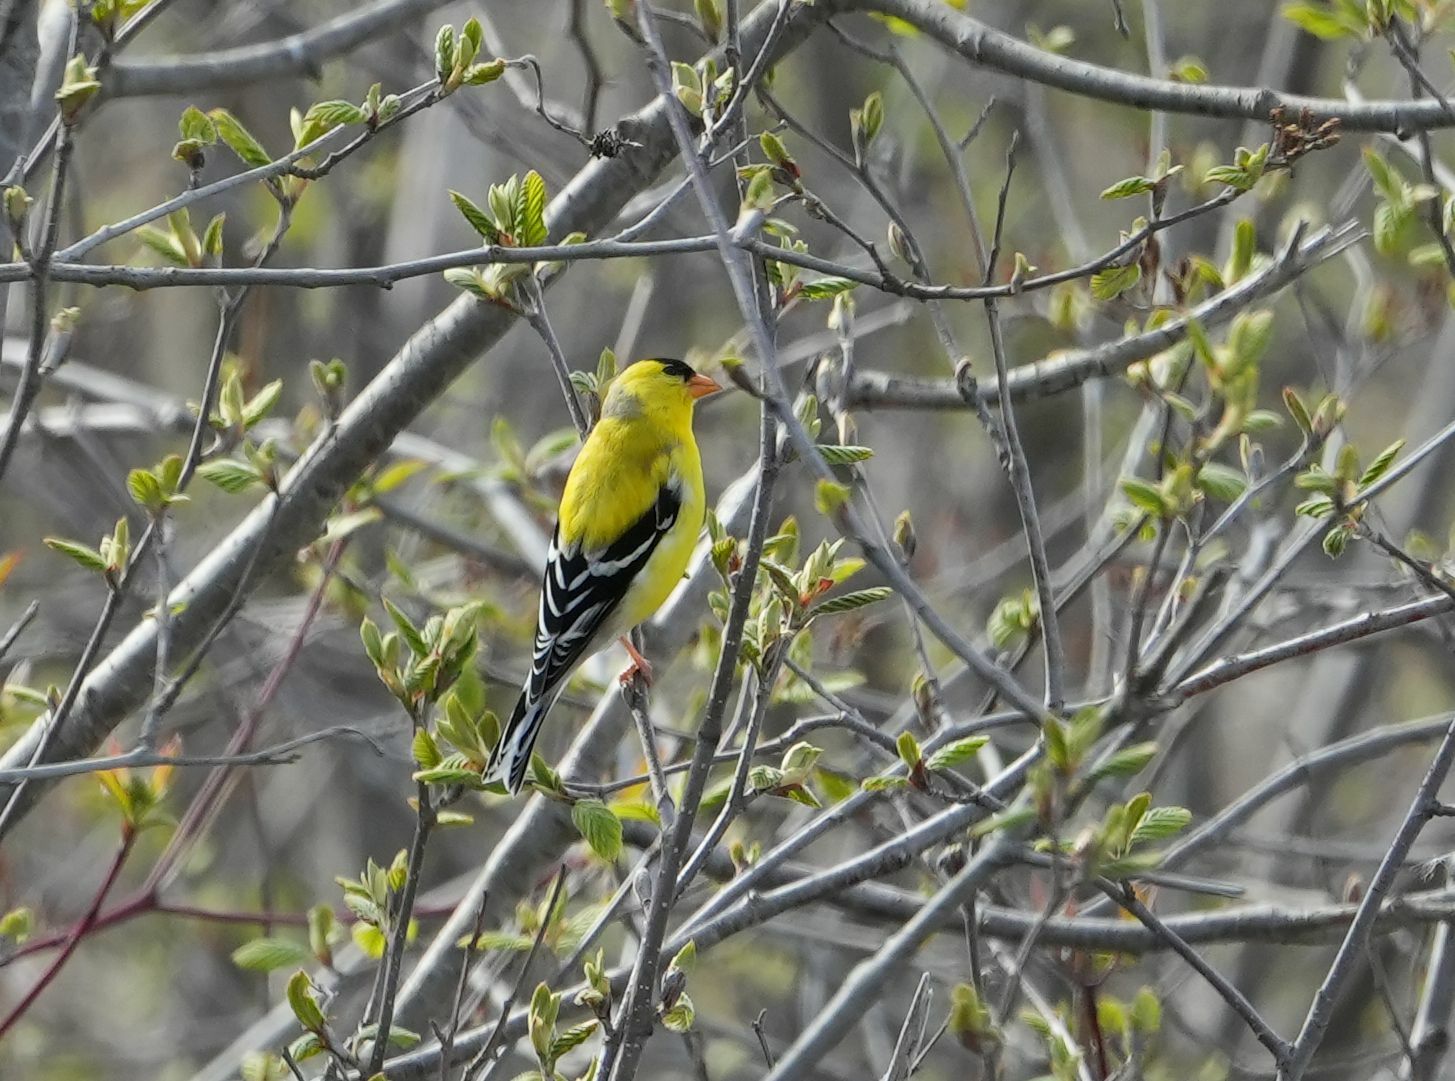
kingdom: Animalia
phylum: Chordata
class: Aves
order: Passeriformes
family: Fringillidae
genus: Spinus
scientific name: Spinus tristis
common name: American goldfinch
